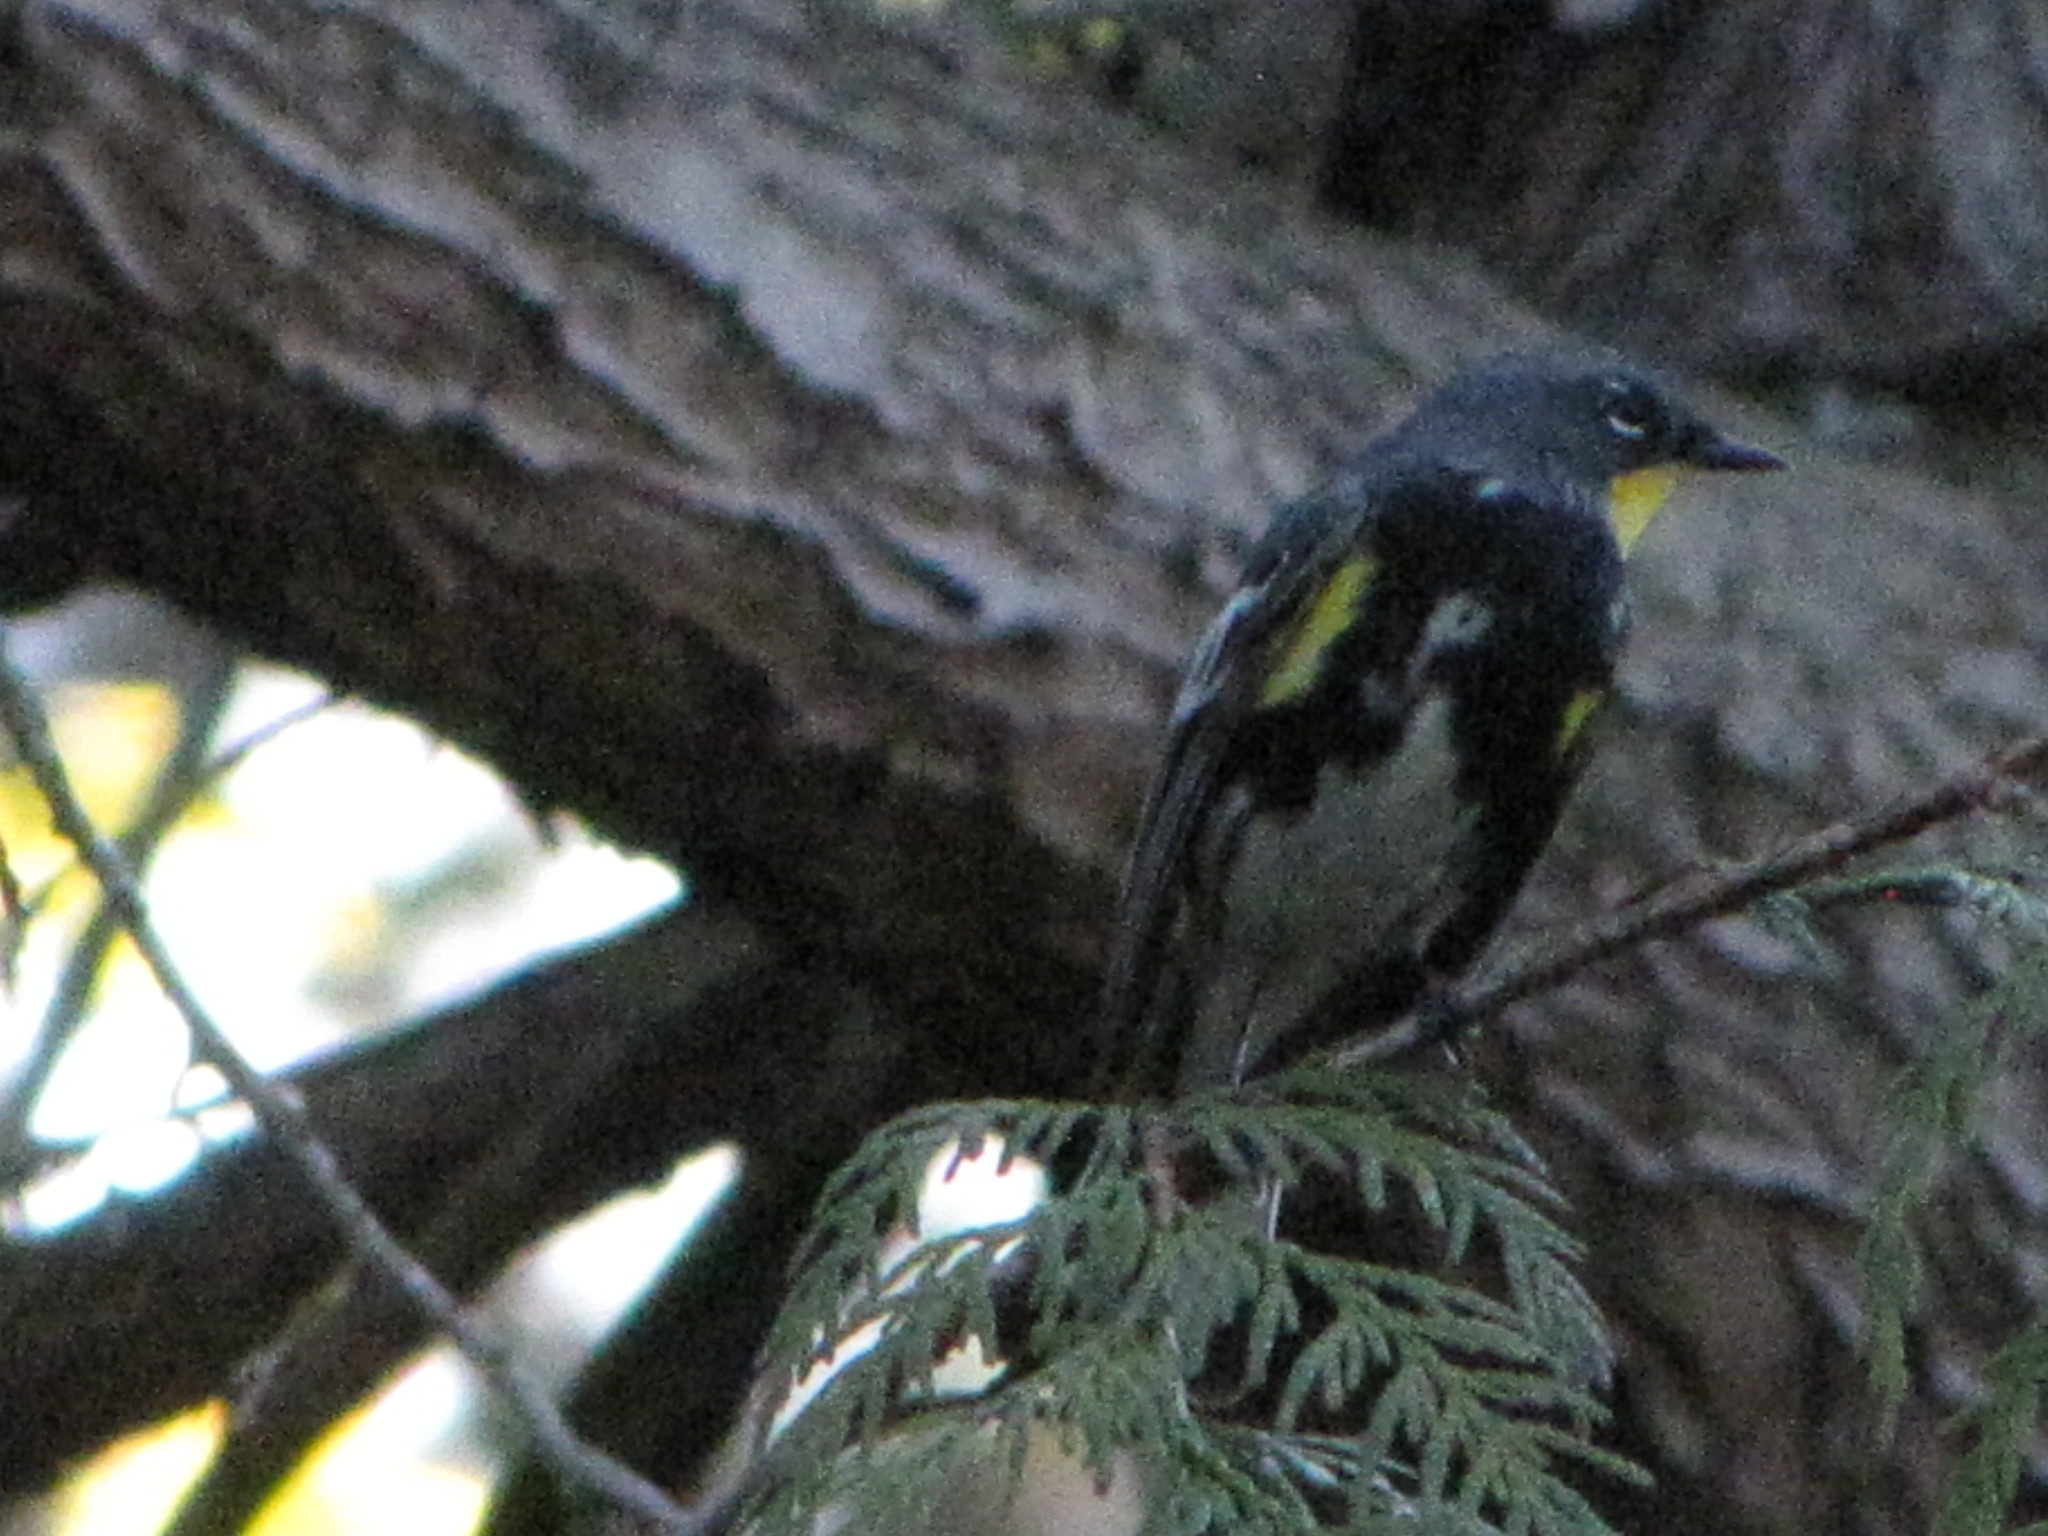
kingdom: Animalia
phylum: Chordata
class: Aves
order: Passeriformes
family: Parulidae
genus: Setophaga
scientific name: Setophaga auduboni
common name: Audubon's warbler
